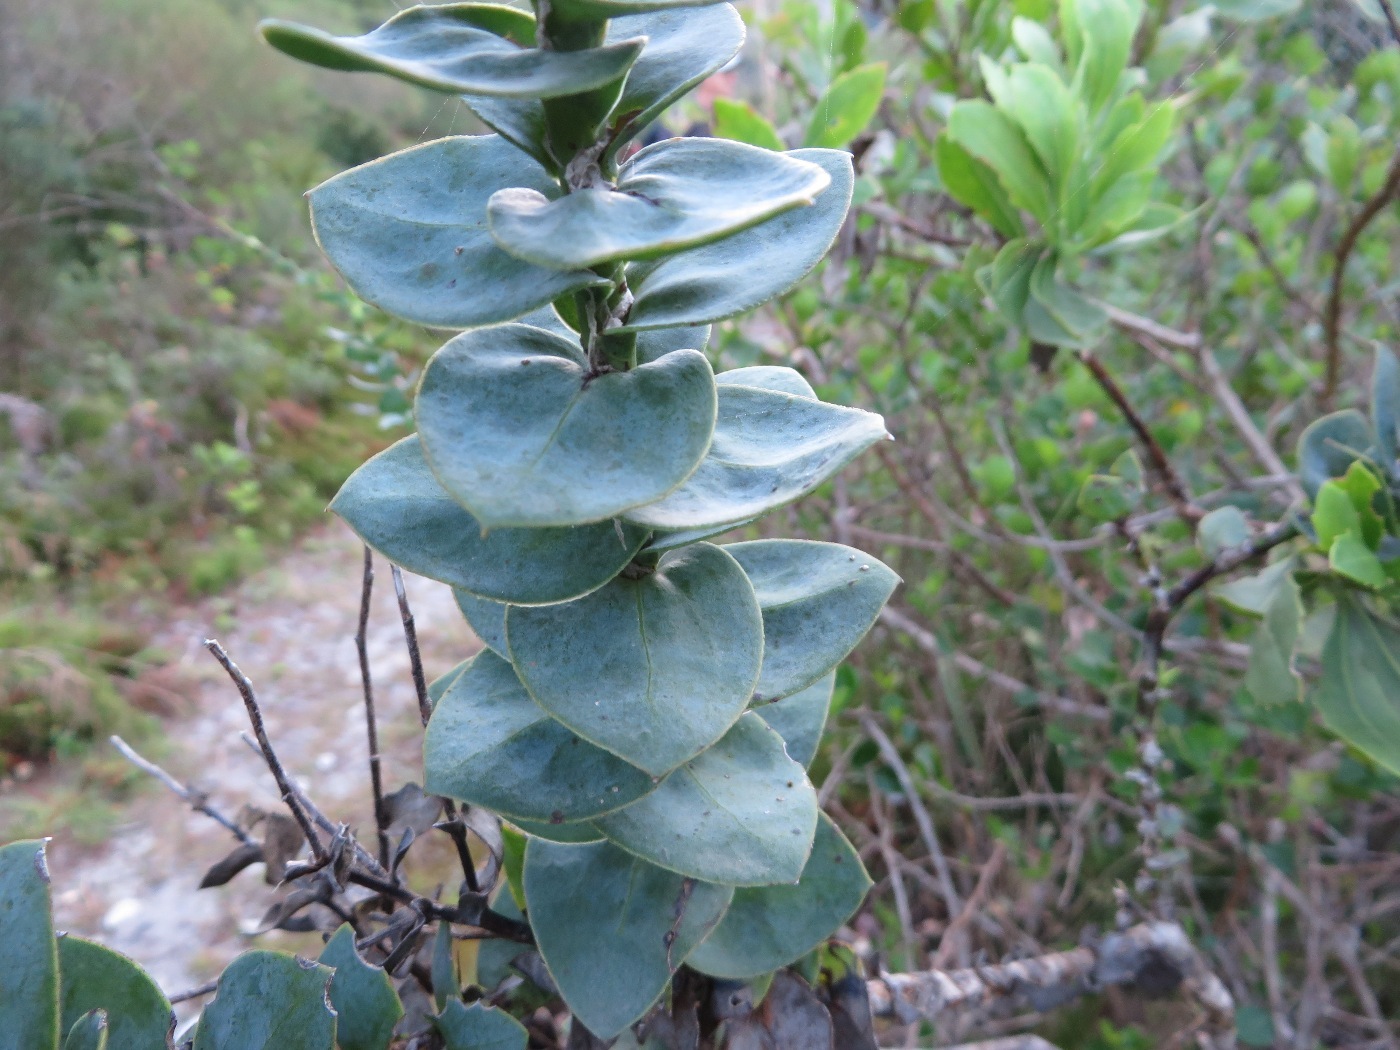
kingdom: Plantae
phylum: Tracheophyta
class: Magnoliopsida
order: Asterales
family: Asteraceae
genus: Osteospermum
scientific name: Osteospermum rotundifolium
